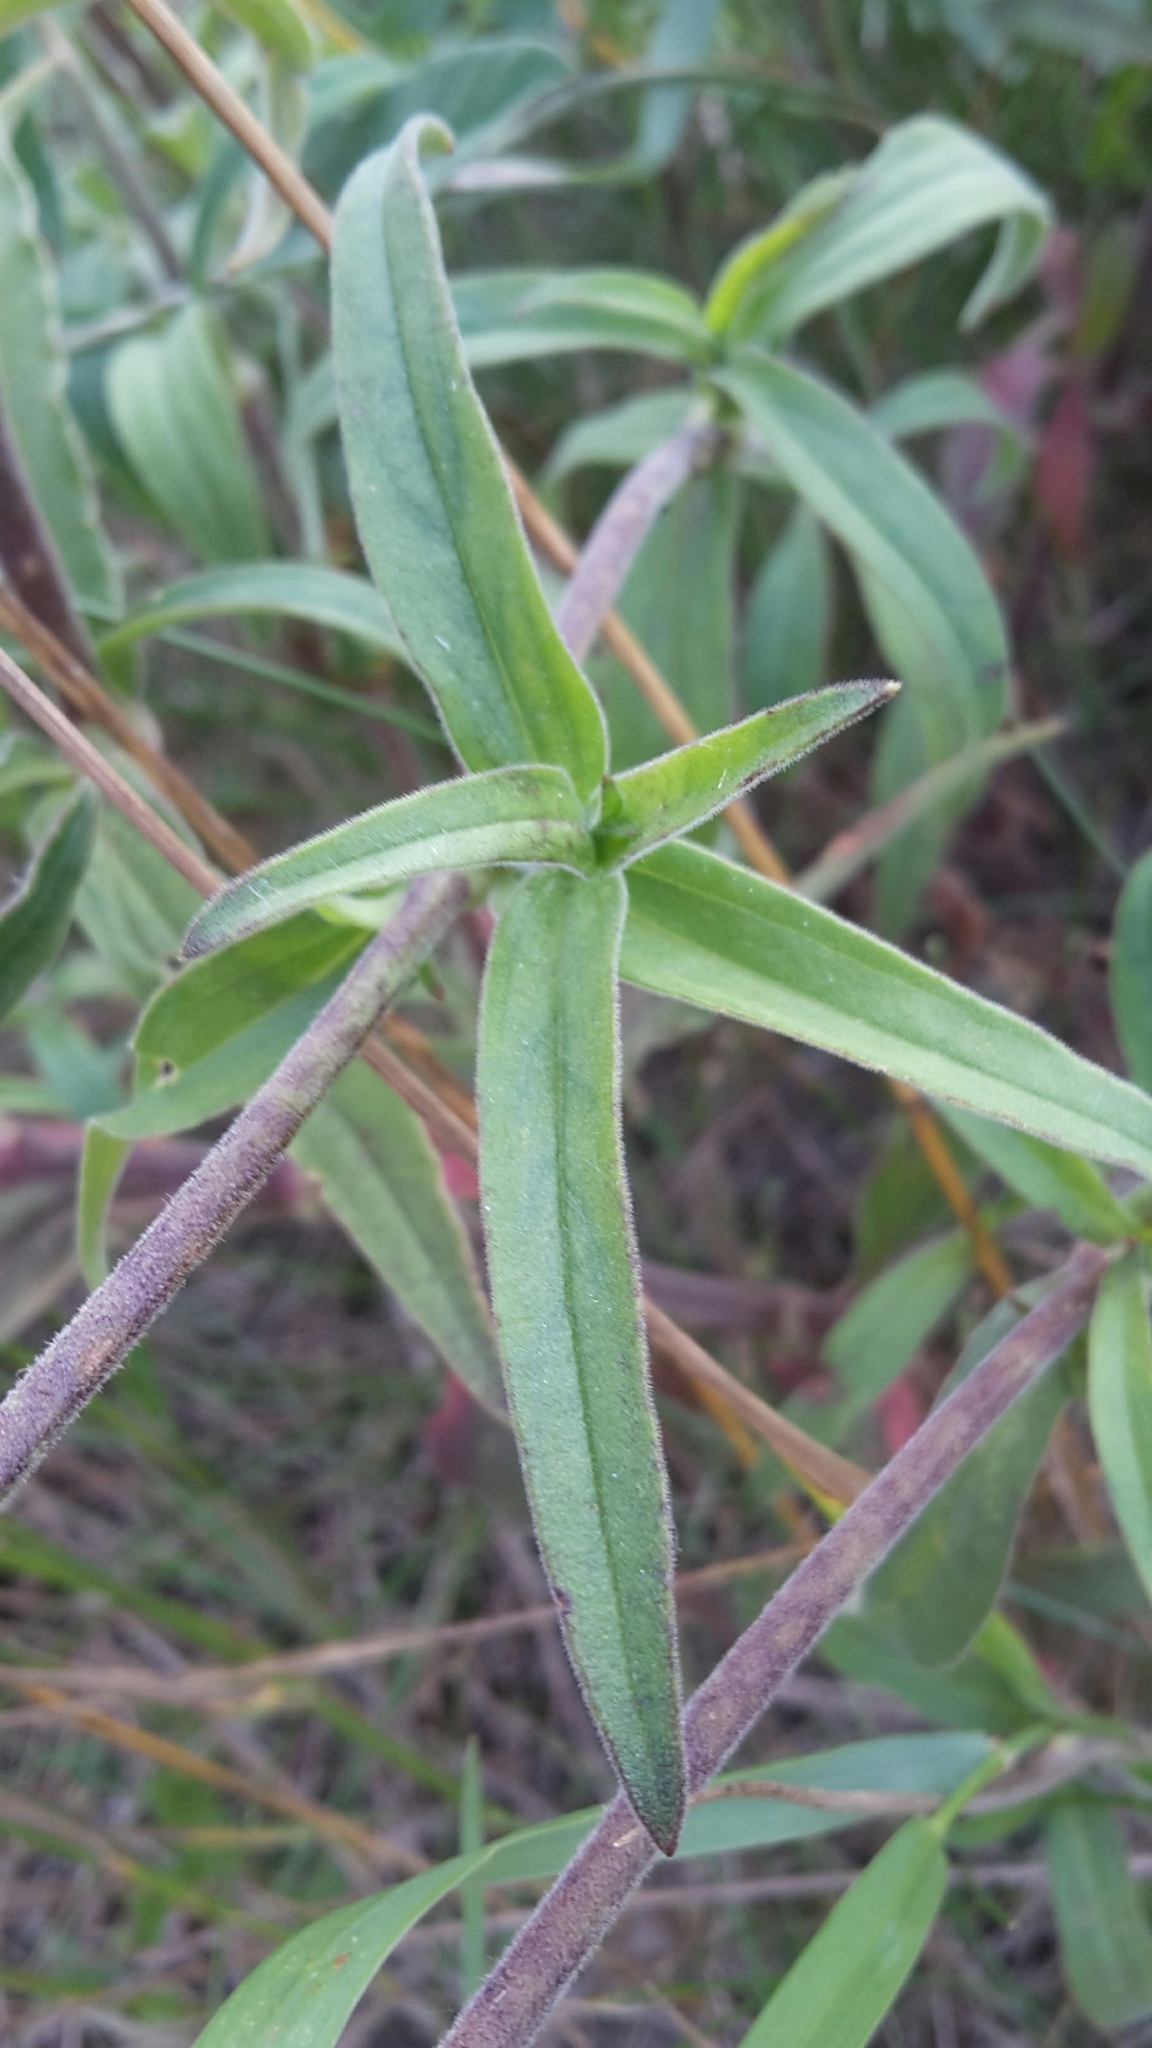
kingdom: Plantae
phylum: Tracheophyta
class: Magnoliopsida
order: Caryophyllales
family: Caryophyllaceae
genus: Silene
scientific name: Silene latifolia
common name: White campion
